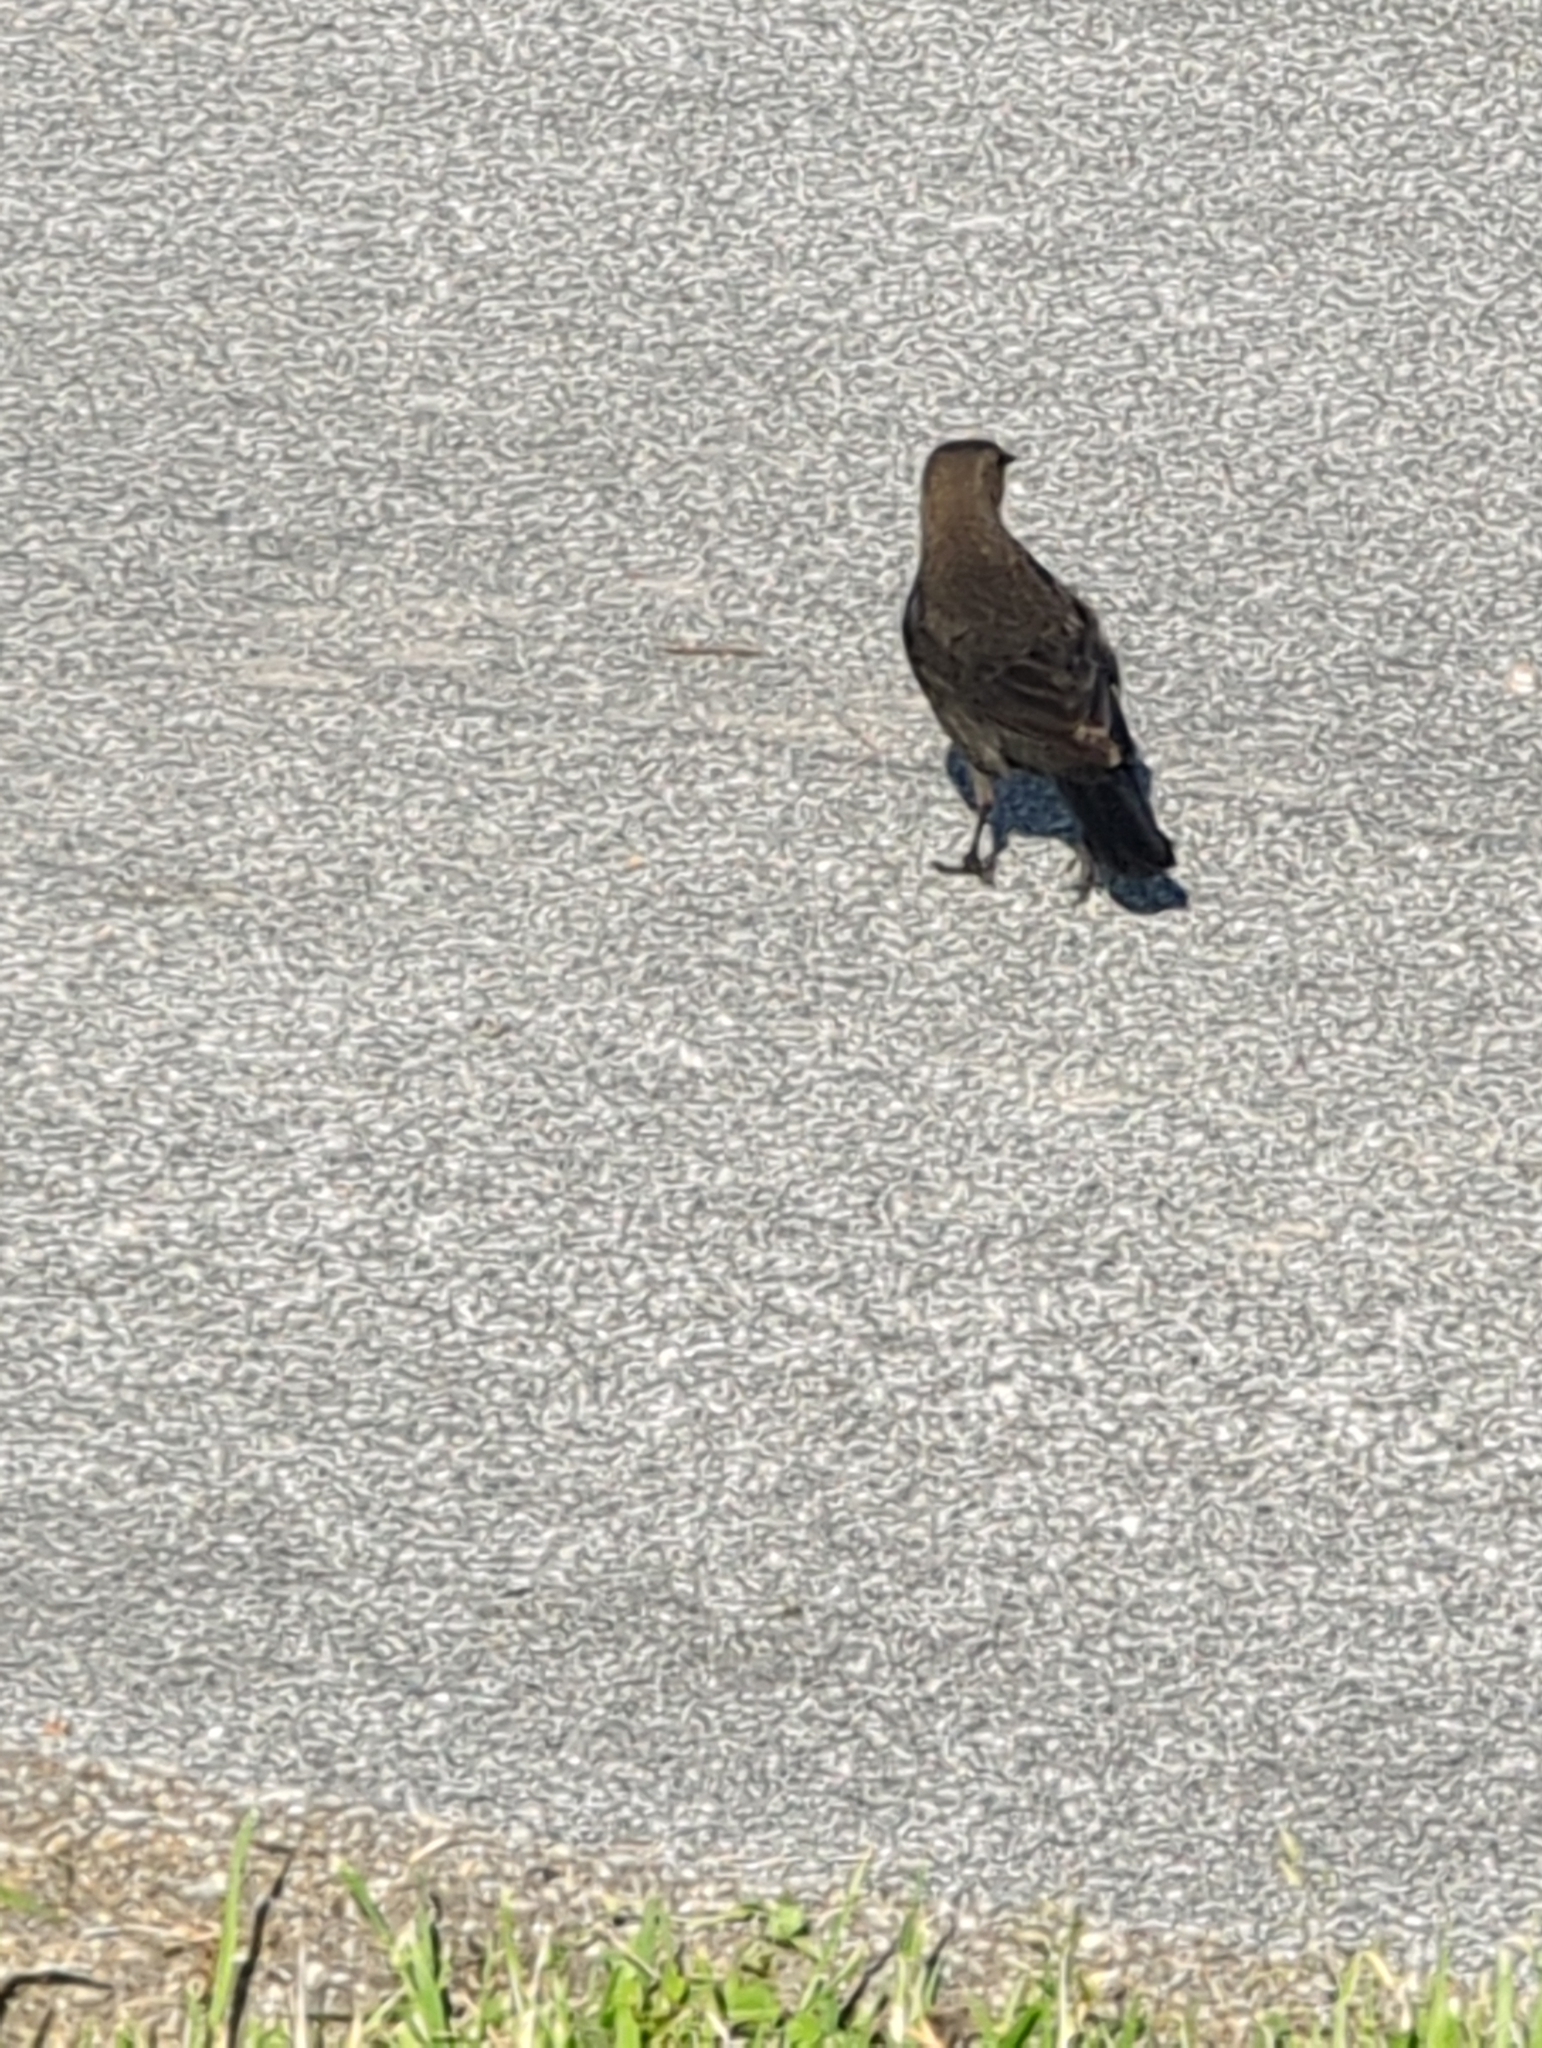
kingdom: Animalia
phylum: Chordata
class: Aves
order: Passeriformes
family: Icteridae
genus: Euphagus
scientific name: Euphagus cyanocephalus
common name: Brewer's blackbird
